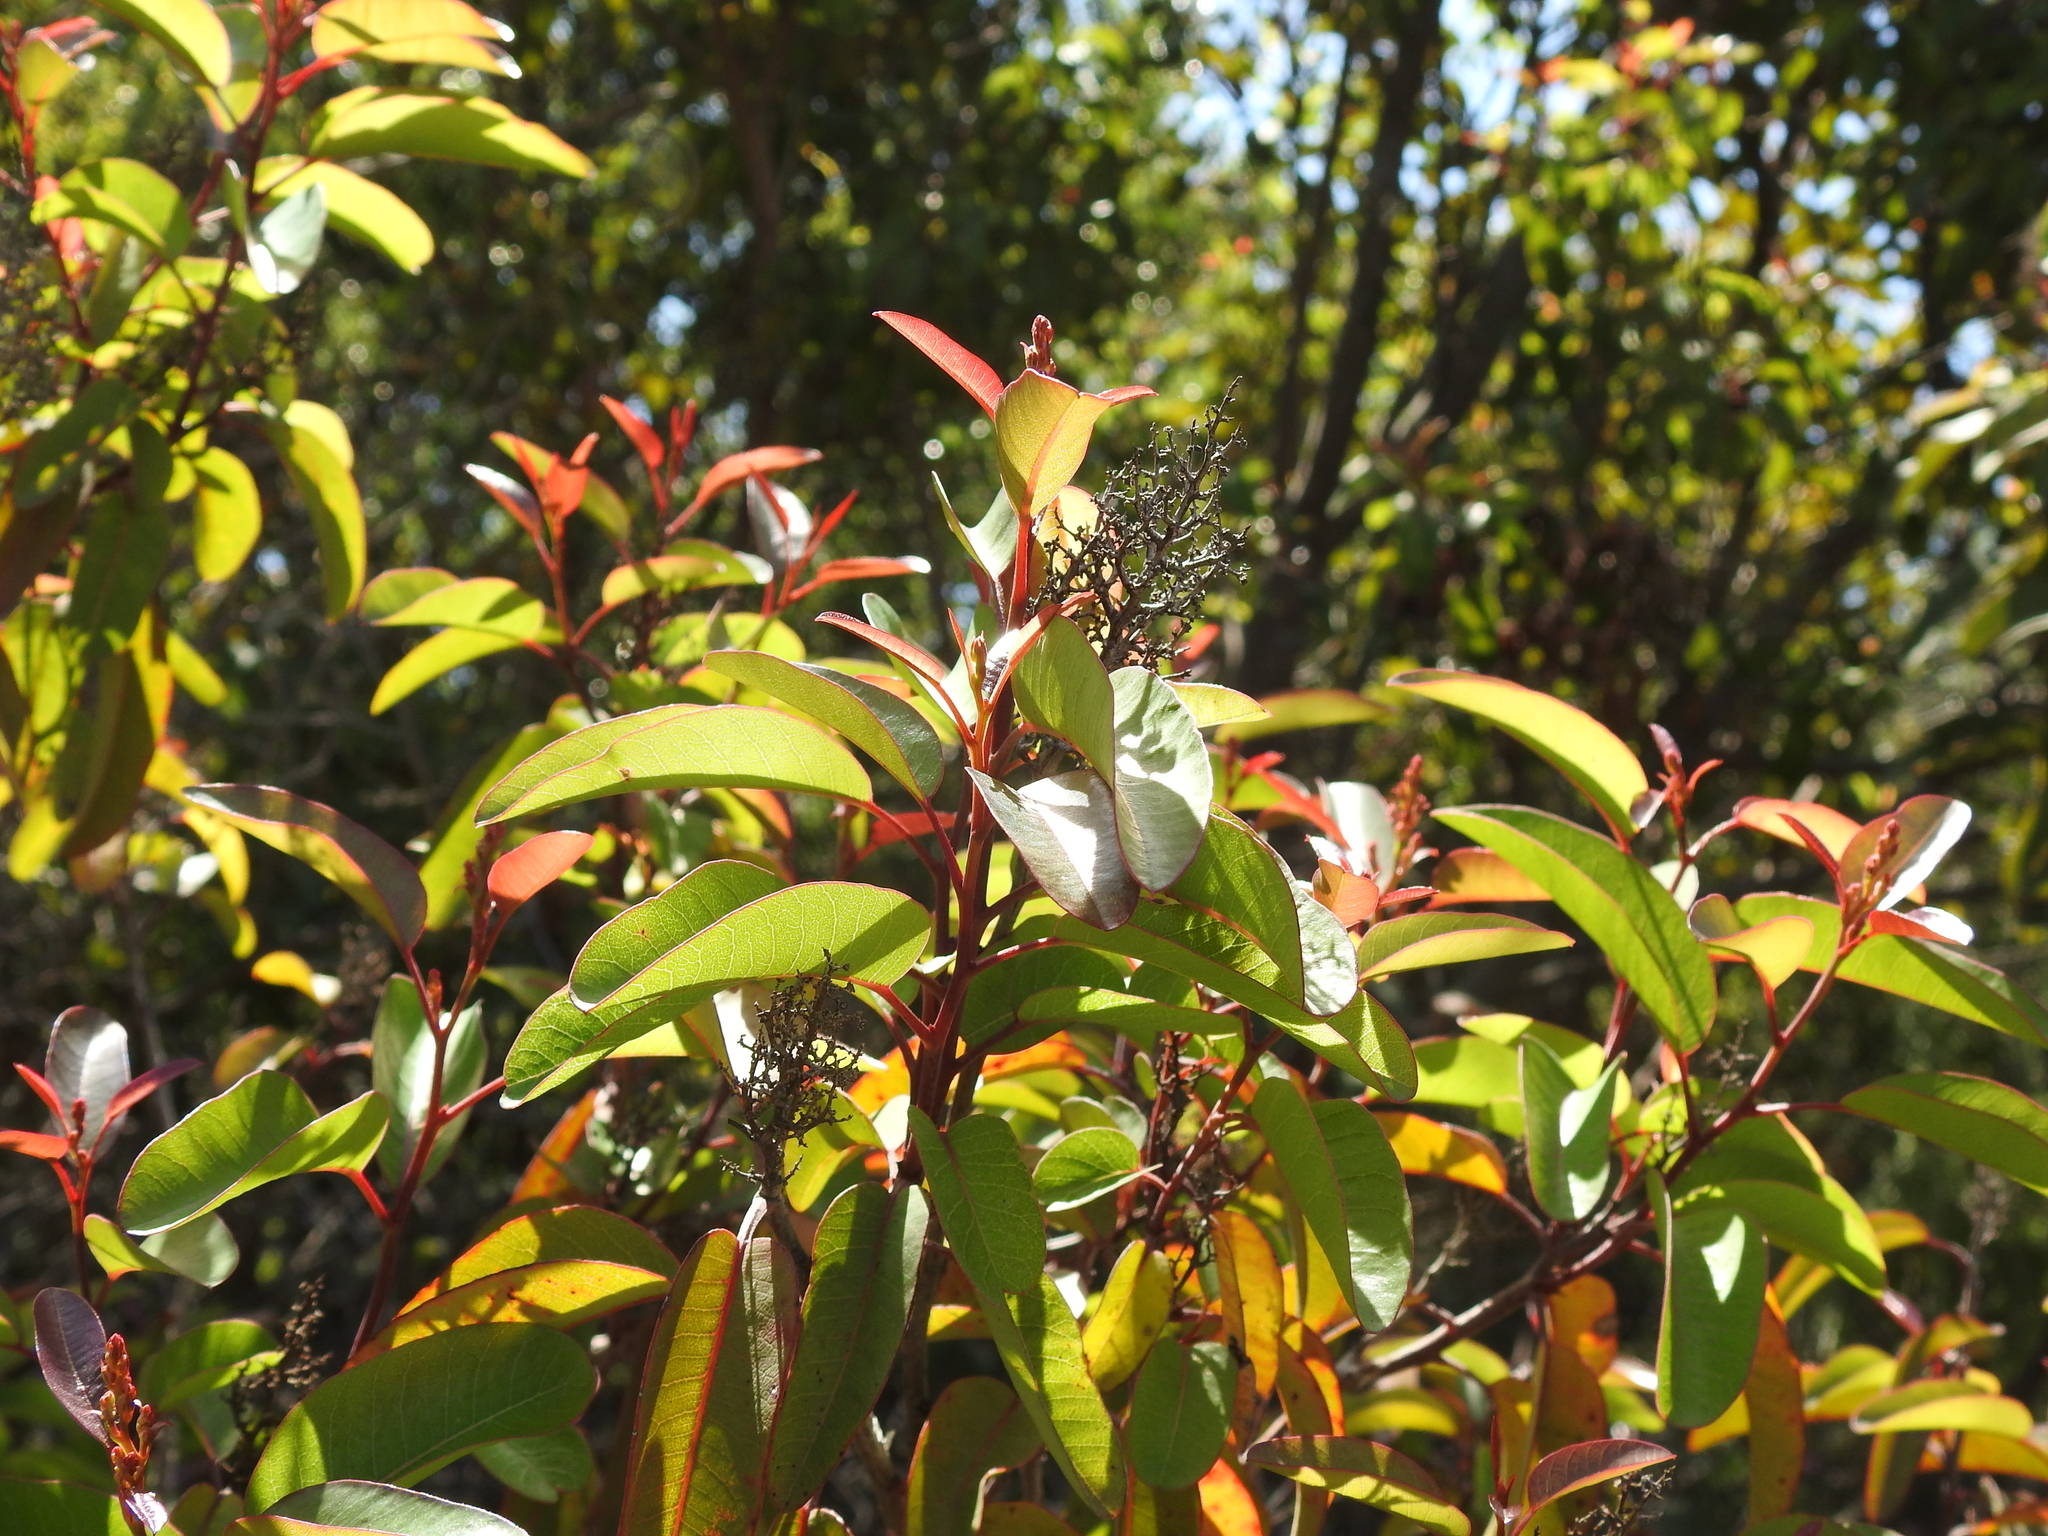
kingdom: Plantae
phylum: Tracheophyta
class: Magnoliopsida
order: Sapindales
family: Anacardiaceae
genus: Malosma
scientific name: Malosma laurina
